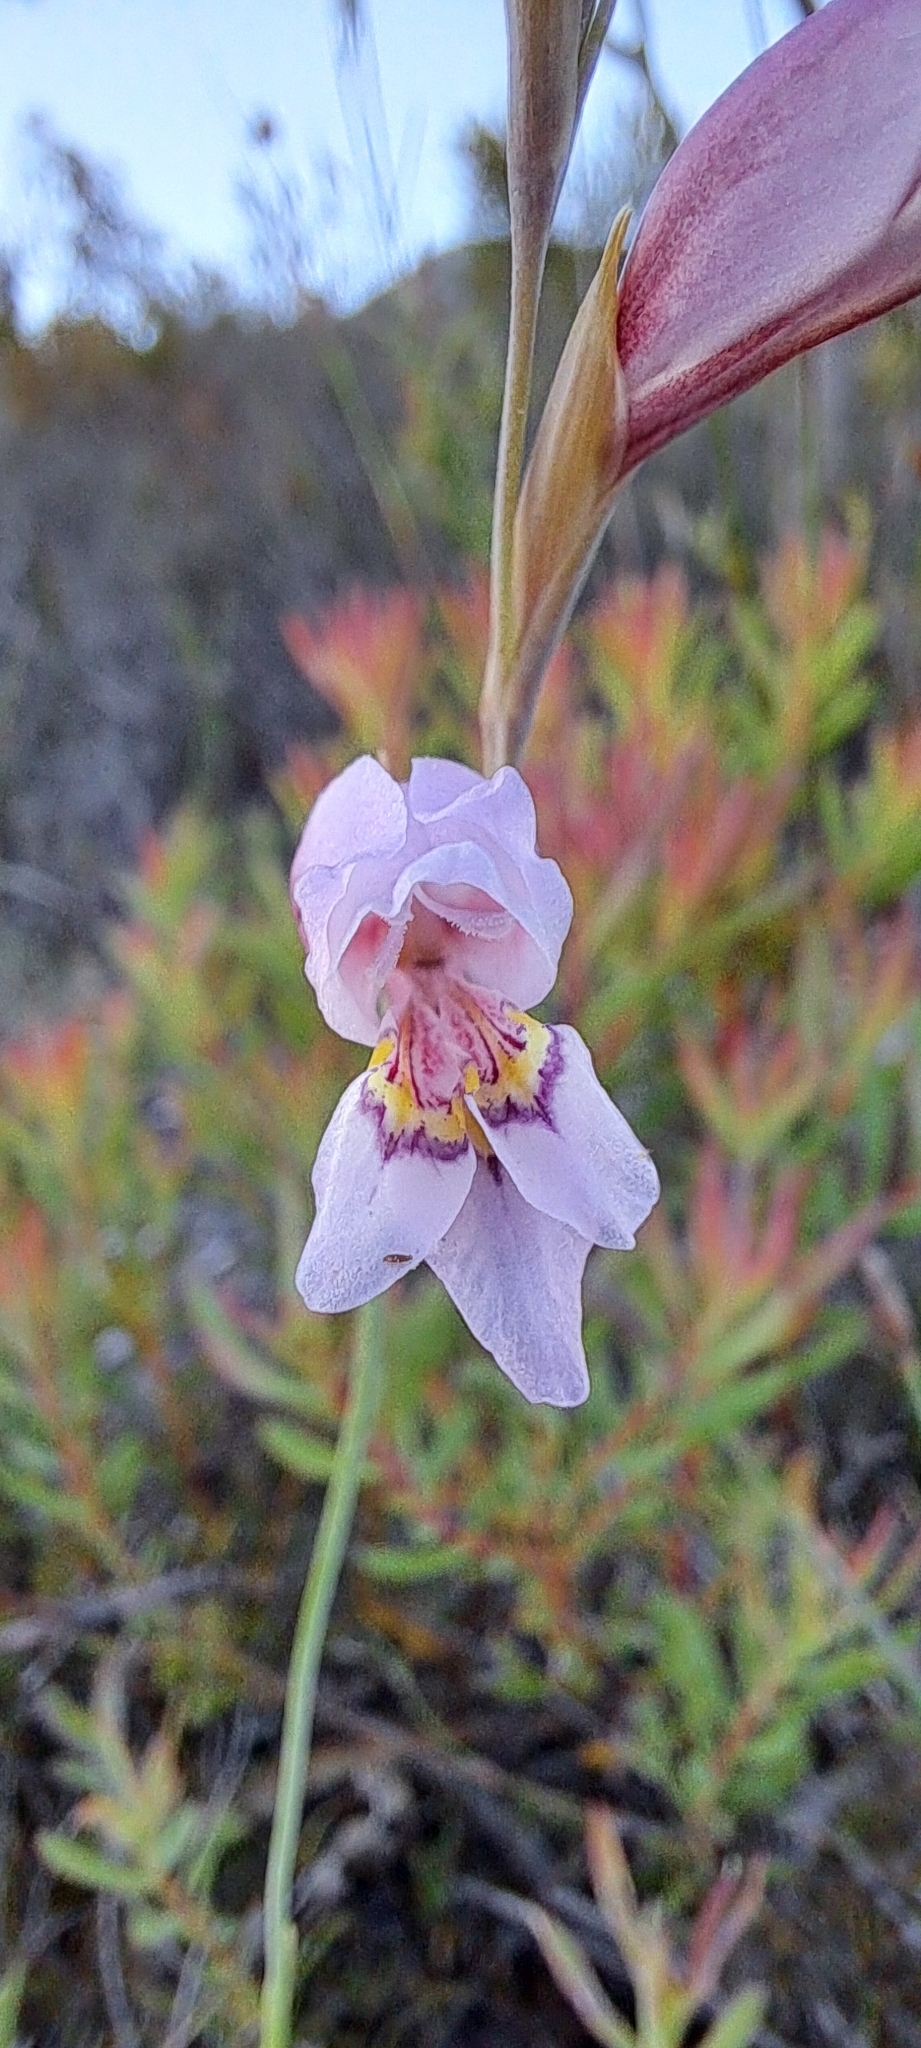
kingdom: Plantae
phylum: Tracheophyta
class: Liliopsida
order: Asparagales
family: Iridaceae
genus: Gladiolus
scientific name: Gladiolus martleyi
